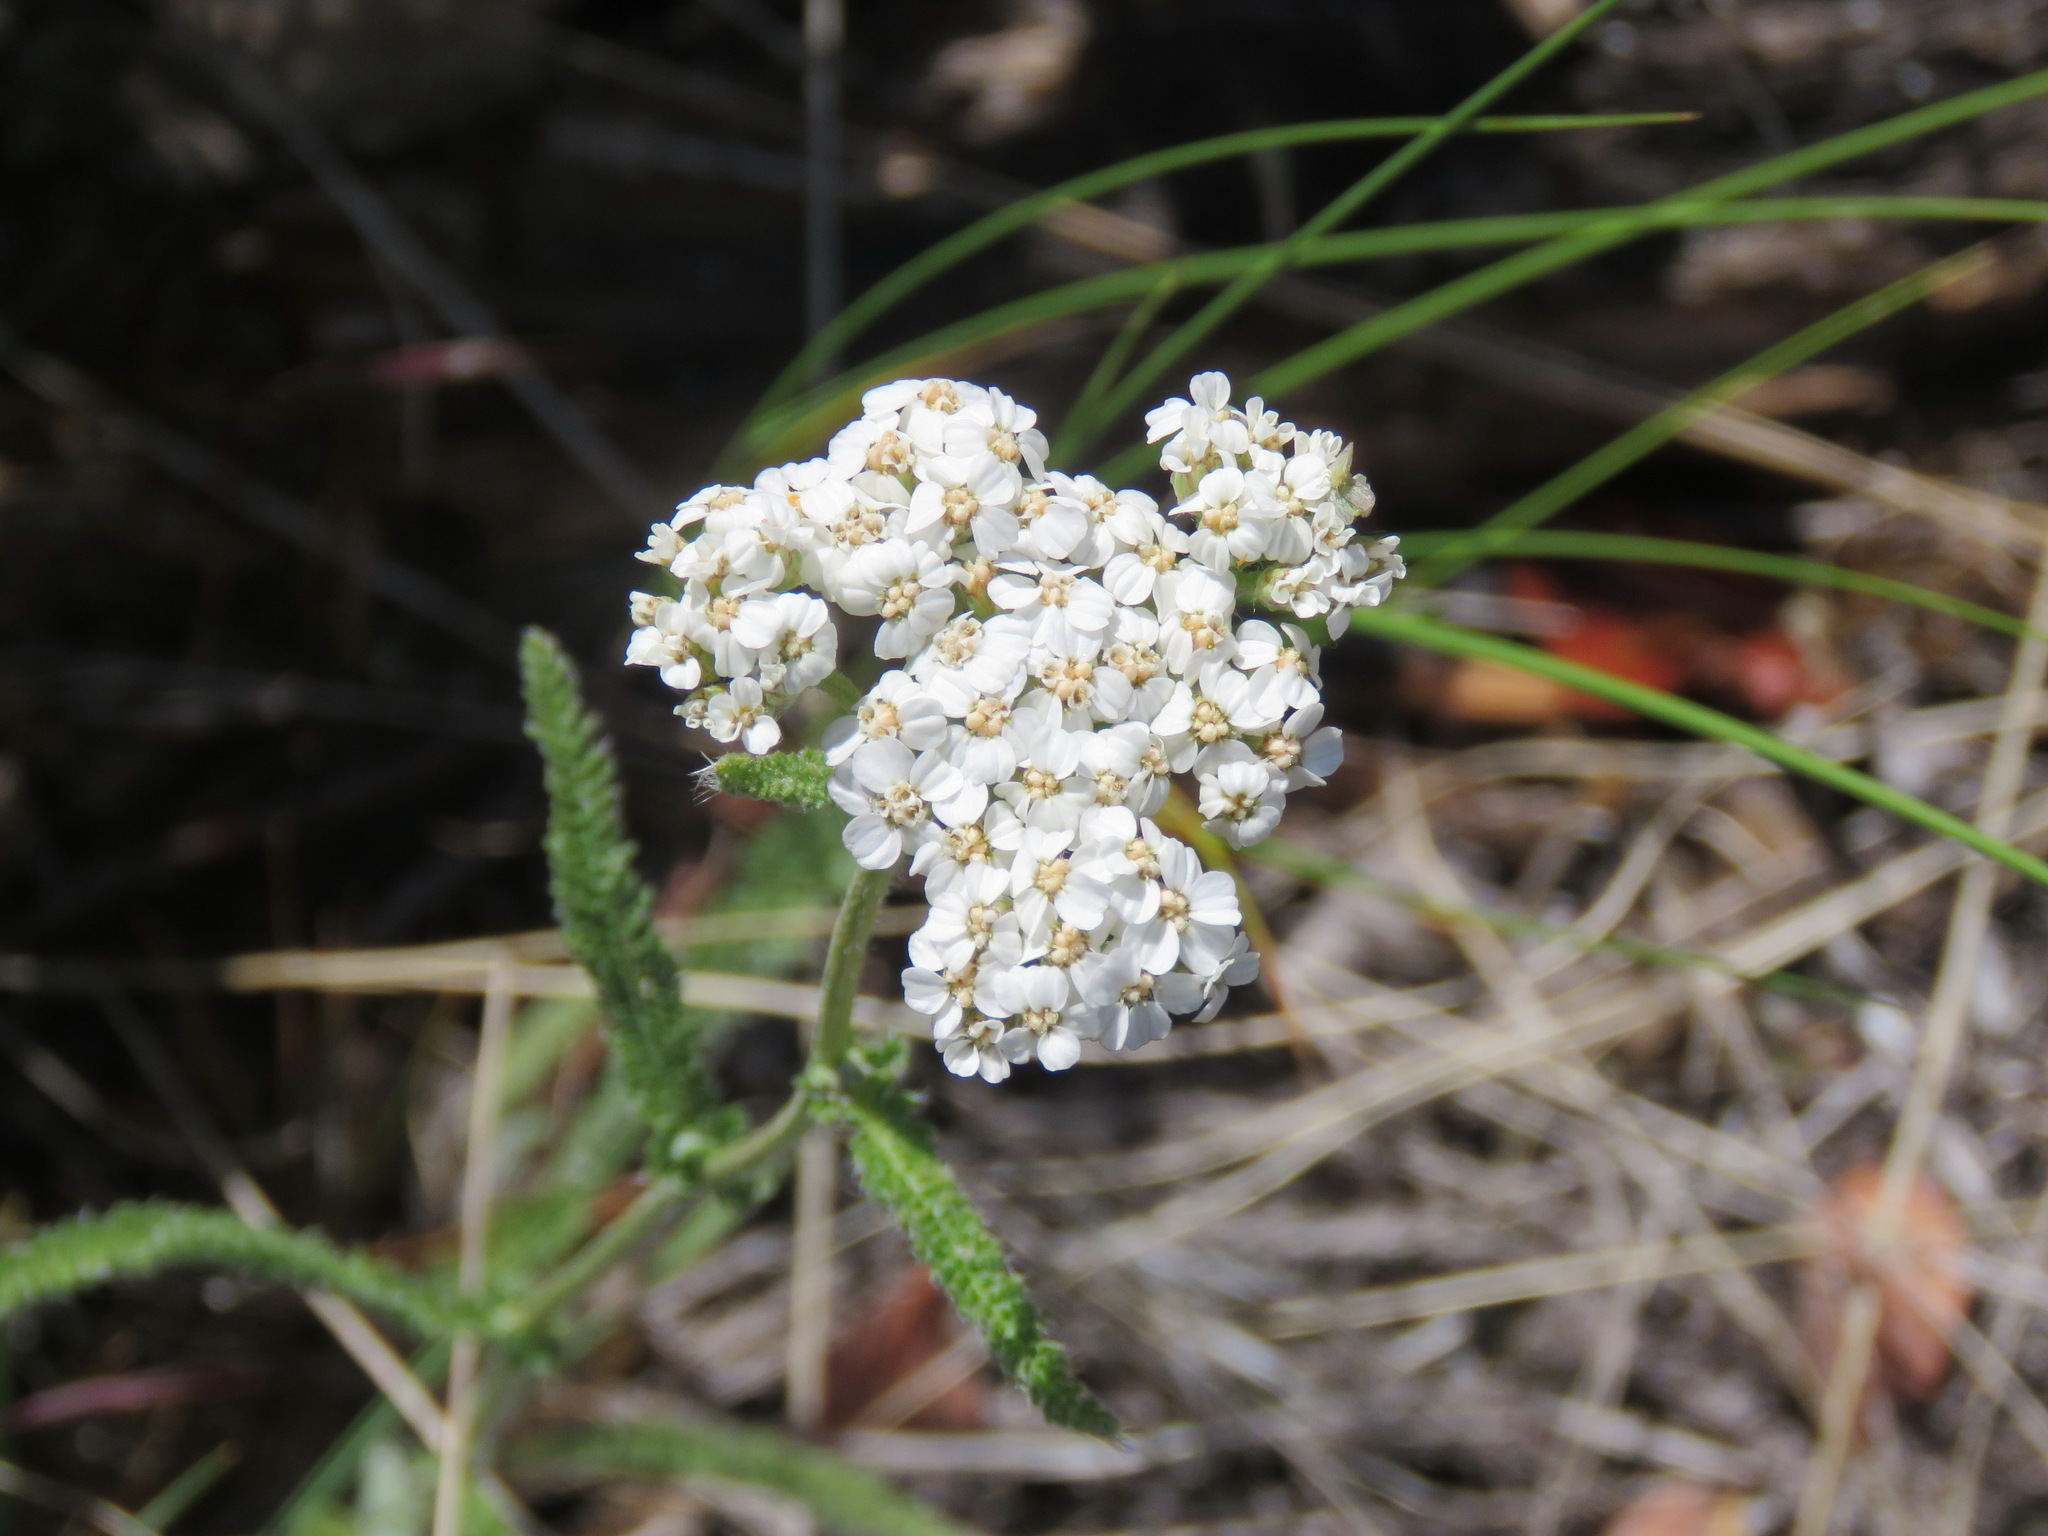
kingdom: Plantae
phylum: Tracheophyta
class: Magnoliopsida
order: Asterales
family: Asteraceae
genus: Achillea
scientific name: Achillea millefolium
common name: Yarrow
